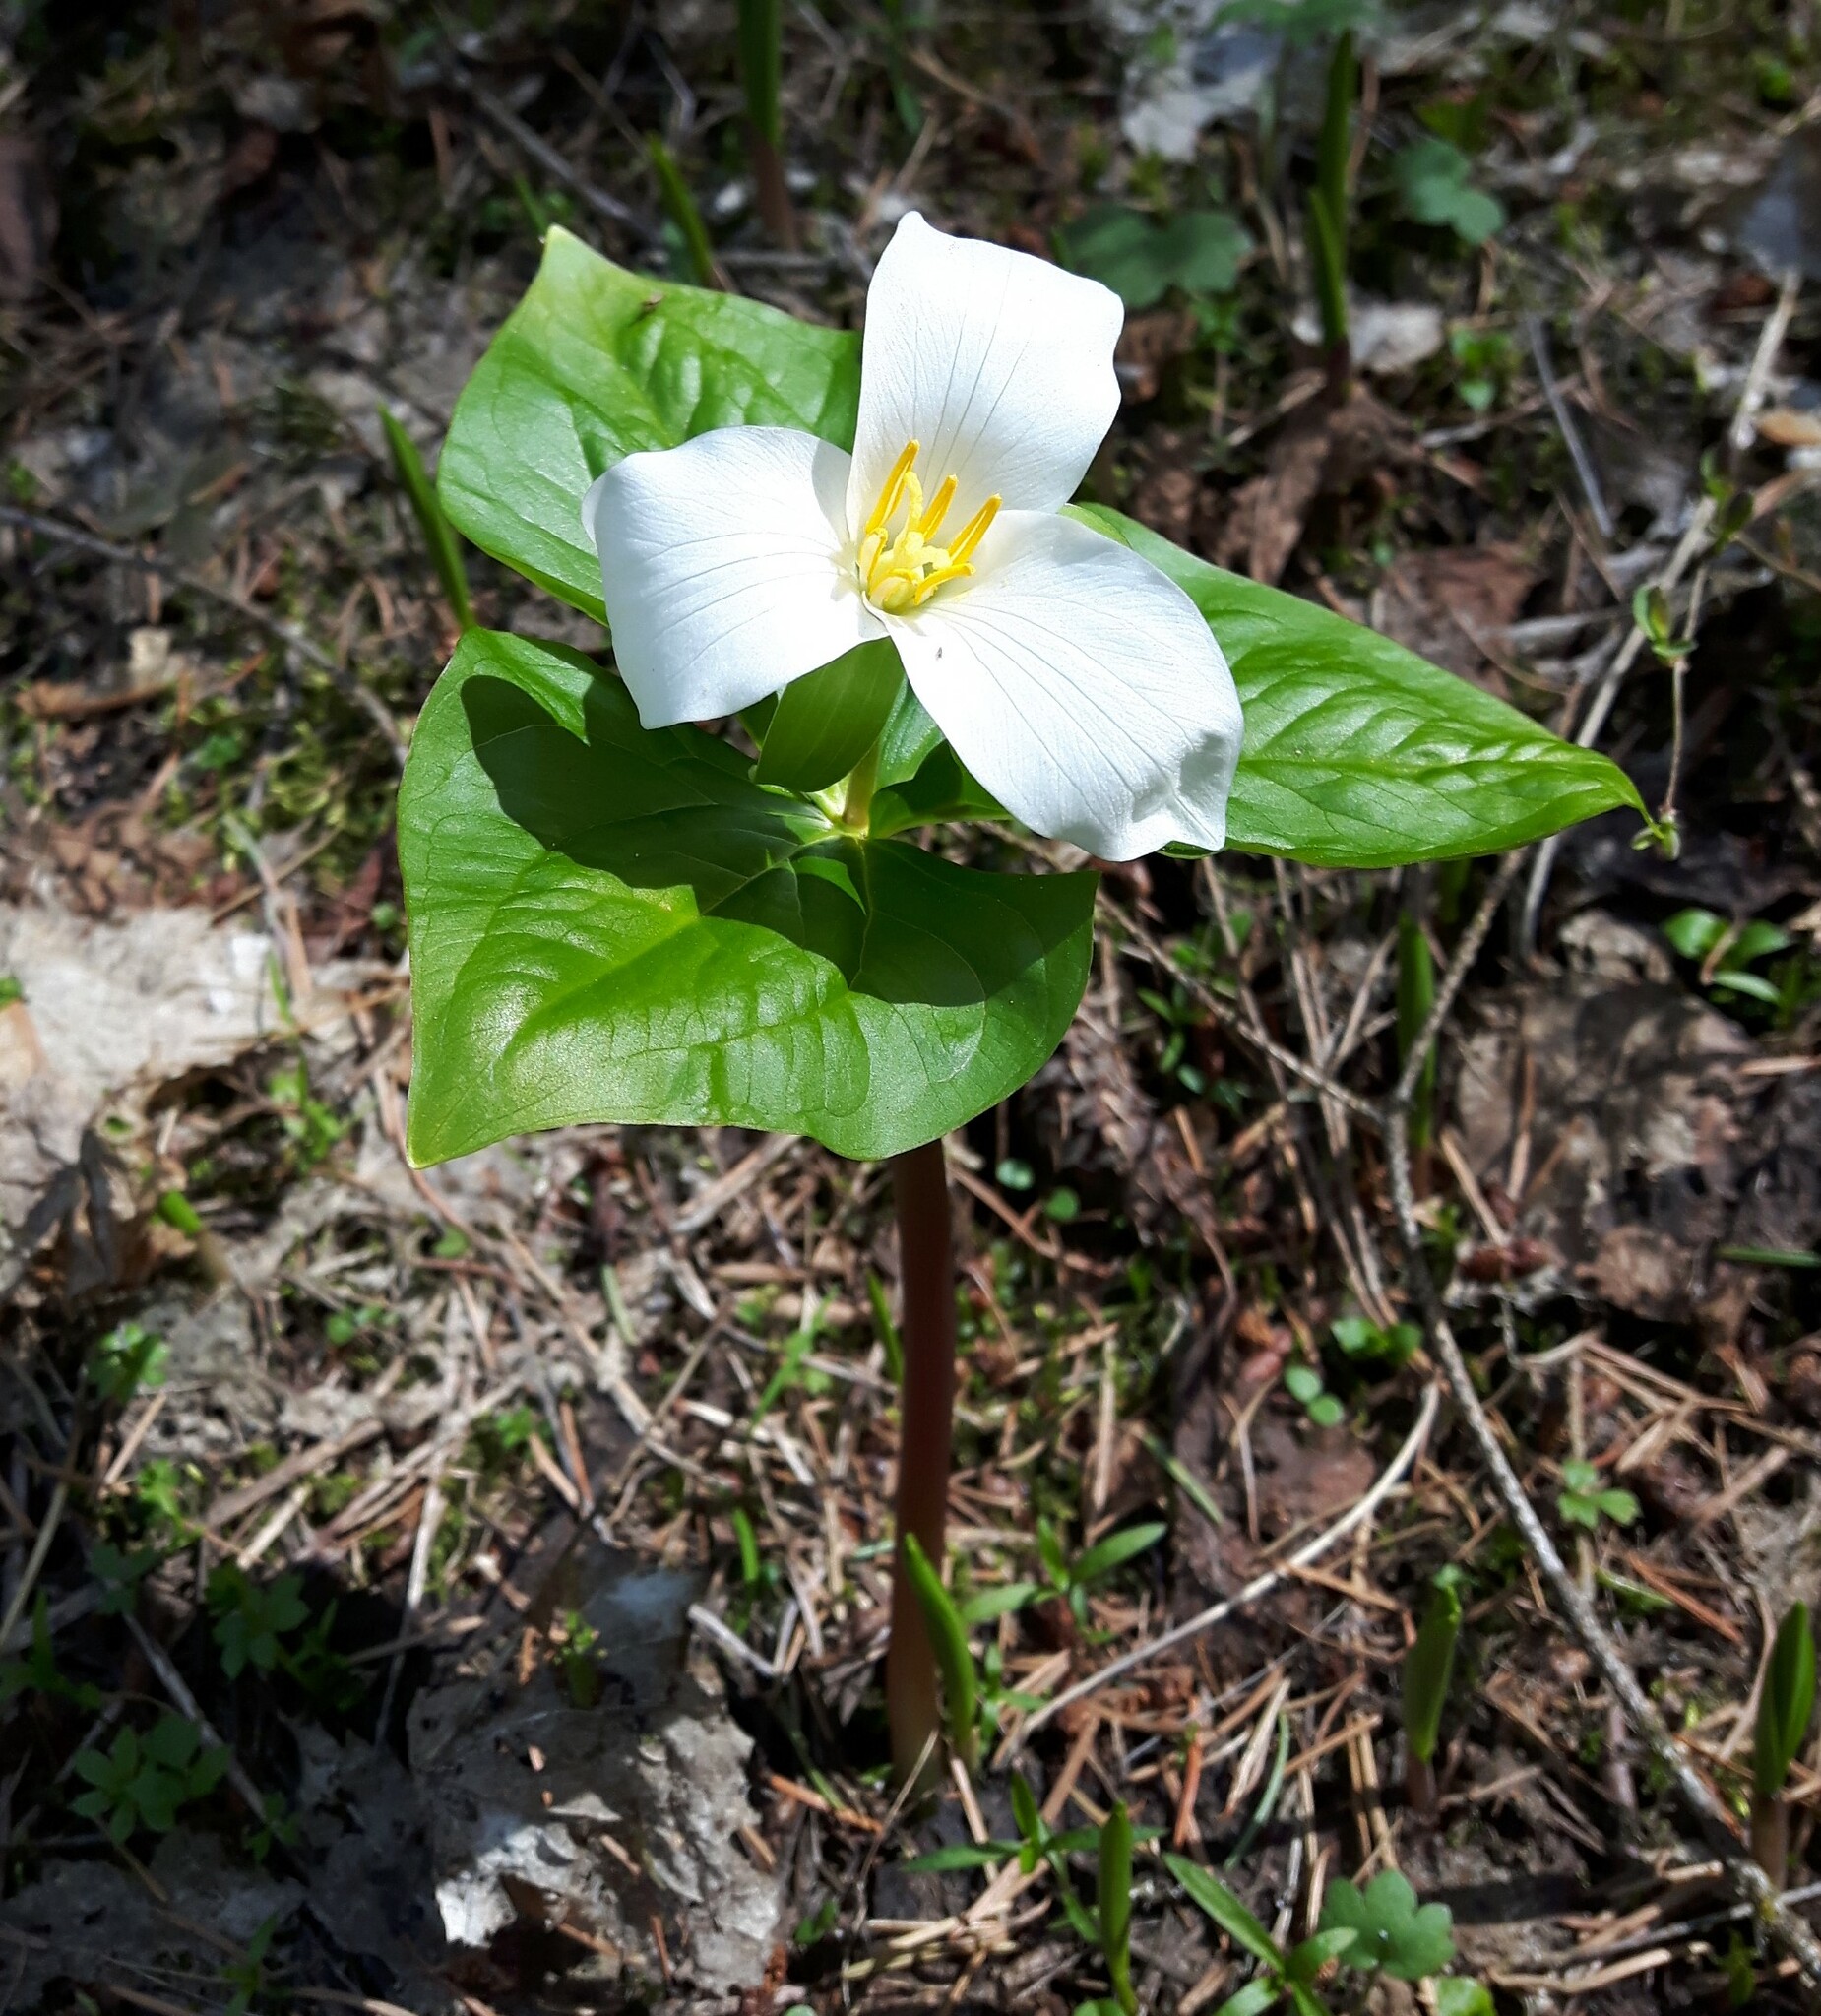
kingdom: Plantae
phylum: Tracheophyta
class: Liliopsida
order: Liliales
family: Melanthiaceae
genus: Trillium
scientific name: Trillium ovatum
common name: Pacific trillium
